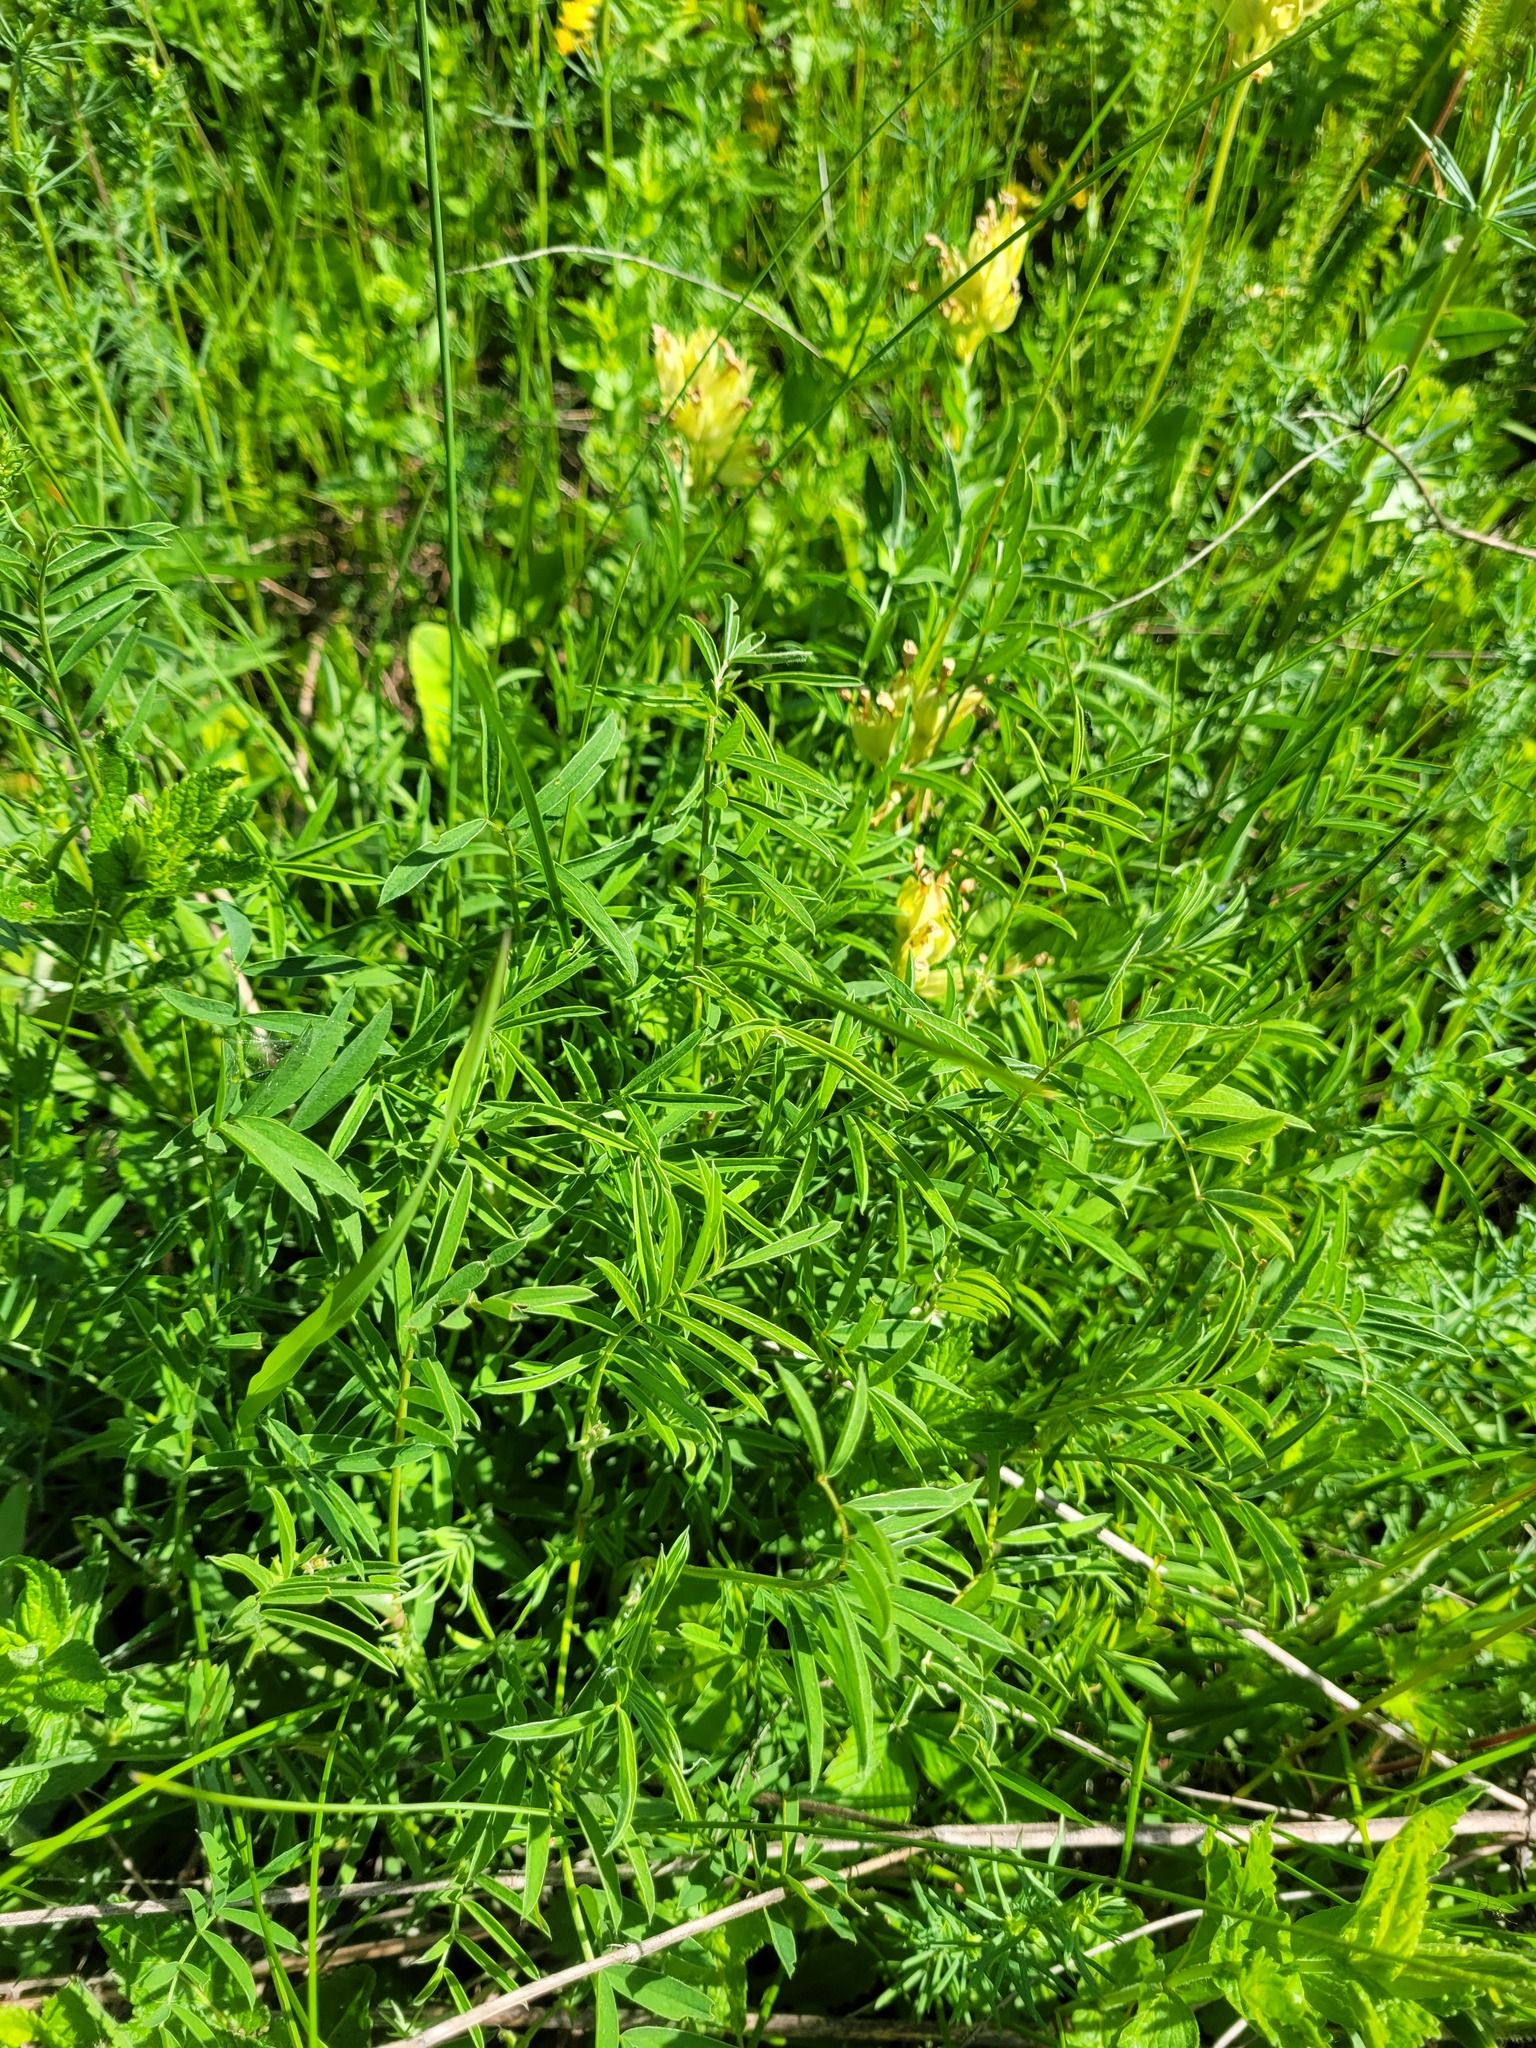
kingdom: Plantae
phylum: Tracheophyta
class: Magnoliopsida
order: Fabales
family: Fabaceae
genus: Onobrychis
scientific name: Onobrychis viciifolia
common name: Sainfoin
